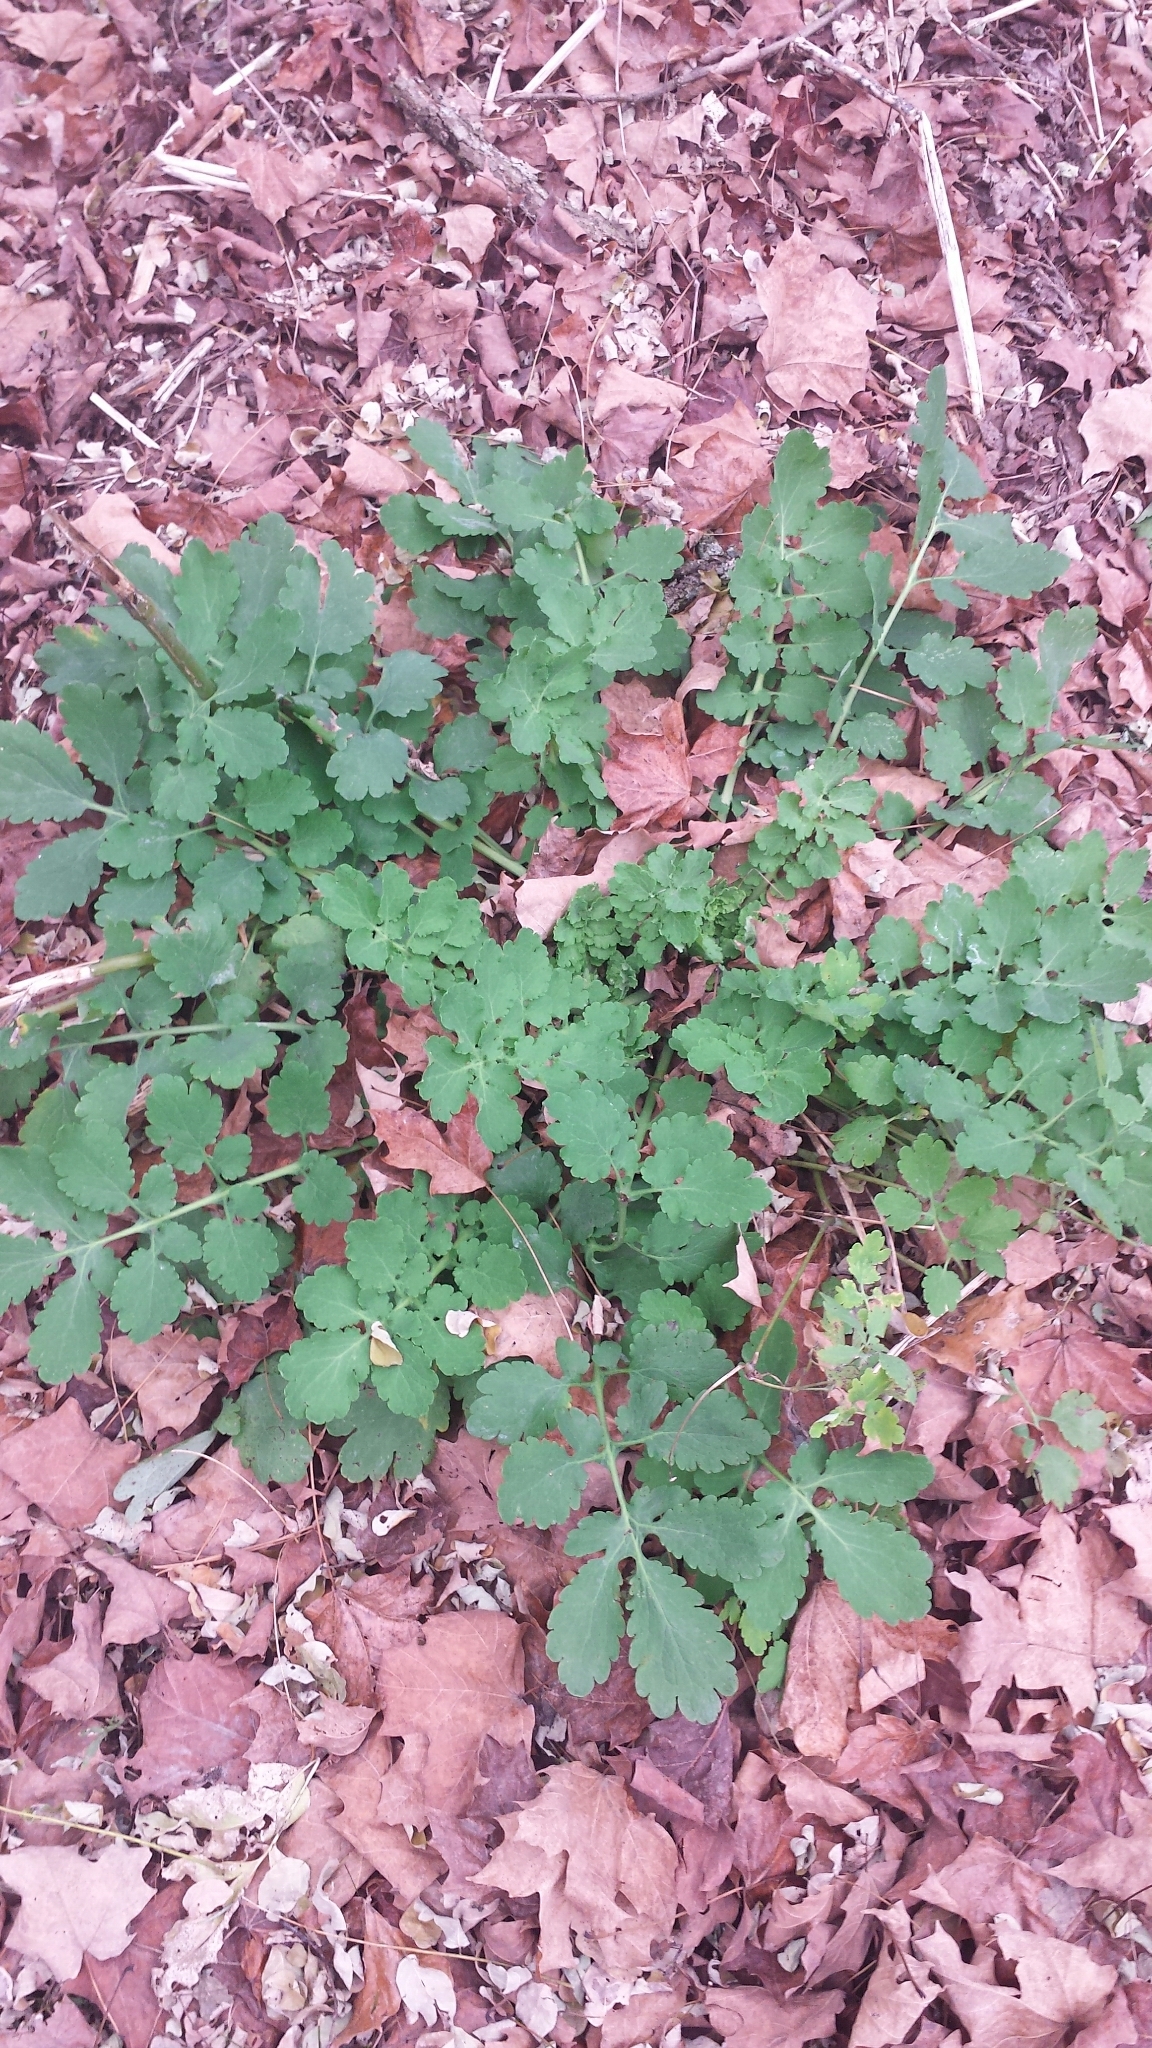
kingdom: Plantae
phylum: Tracheophyta
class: Magnoliopsida
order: Ranunculales
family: Papaveraceae
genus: Chelidonium
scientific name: Chelidonium majus
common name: Greater celandine
